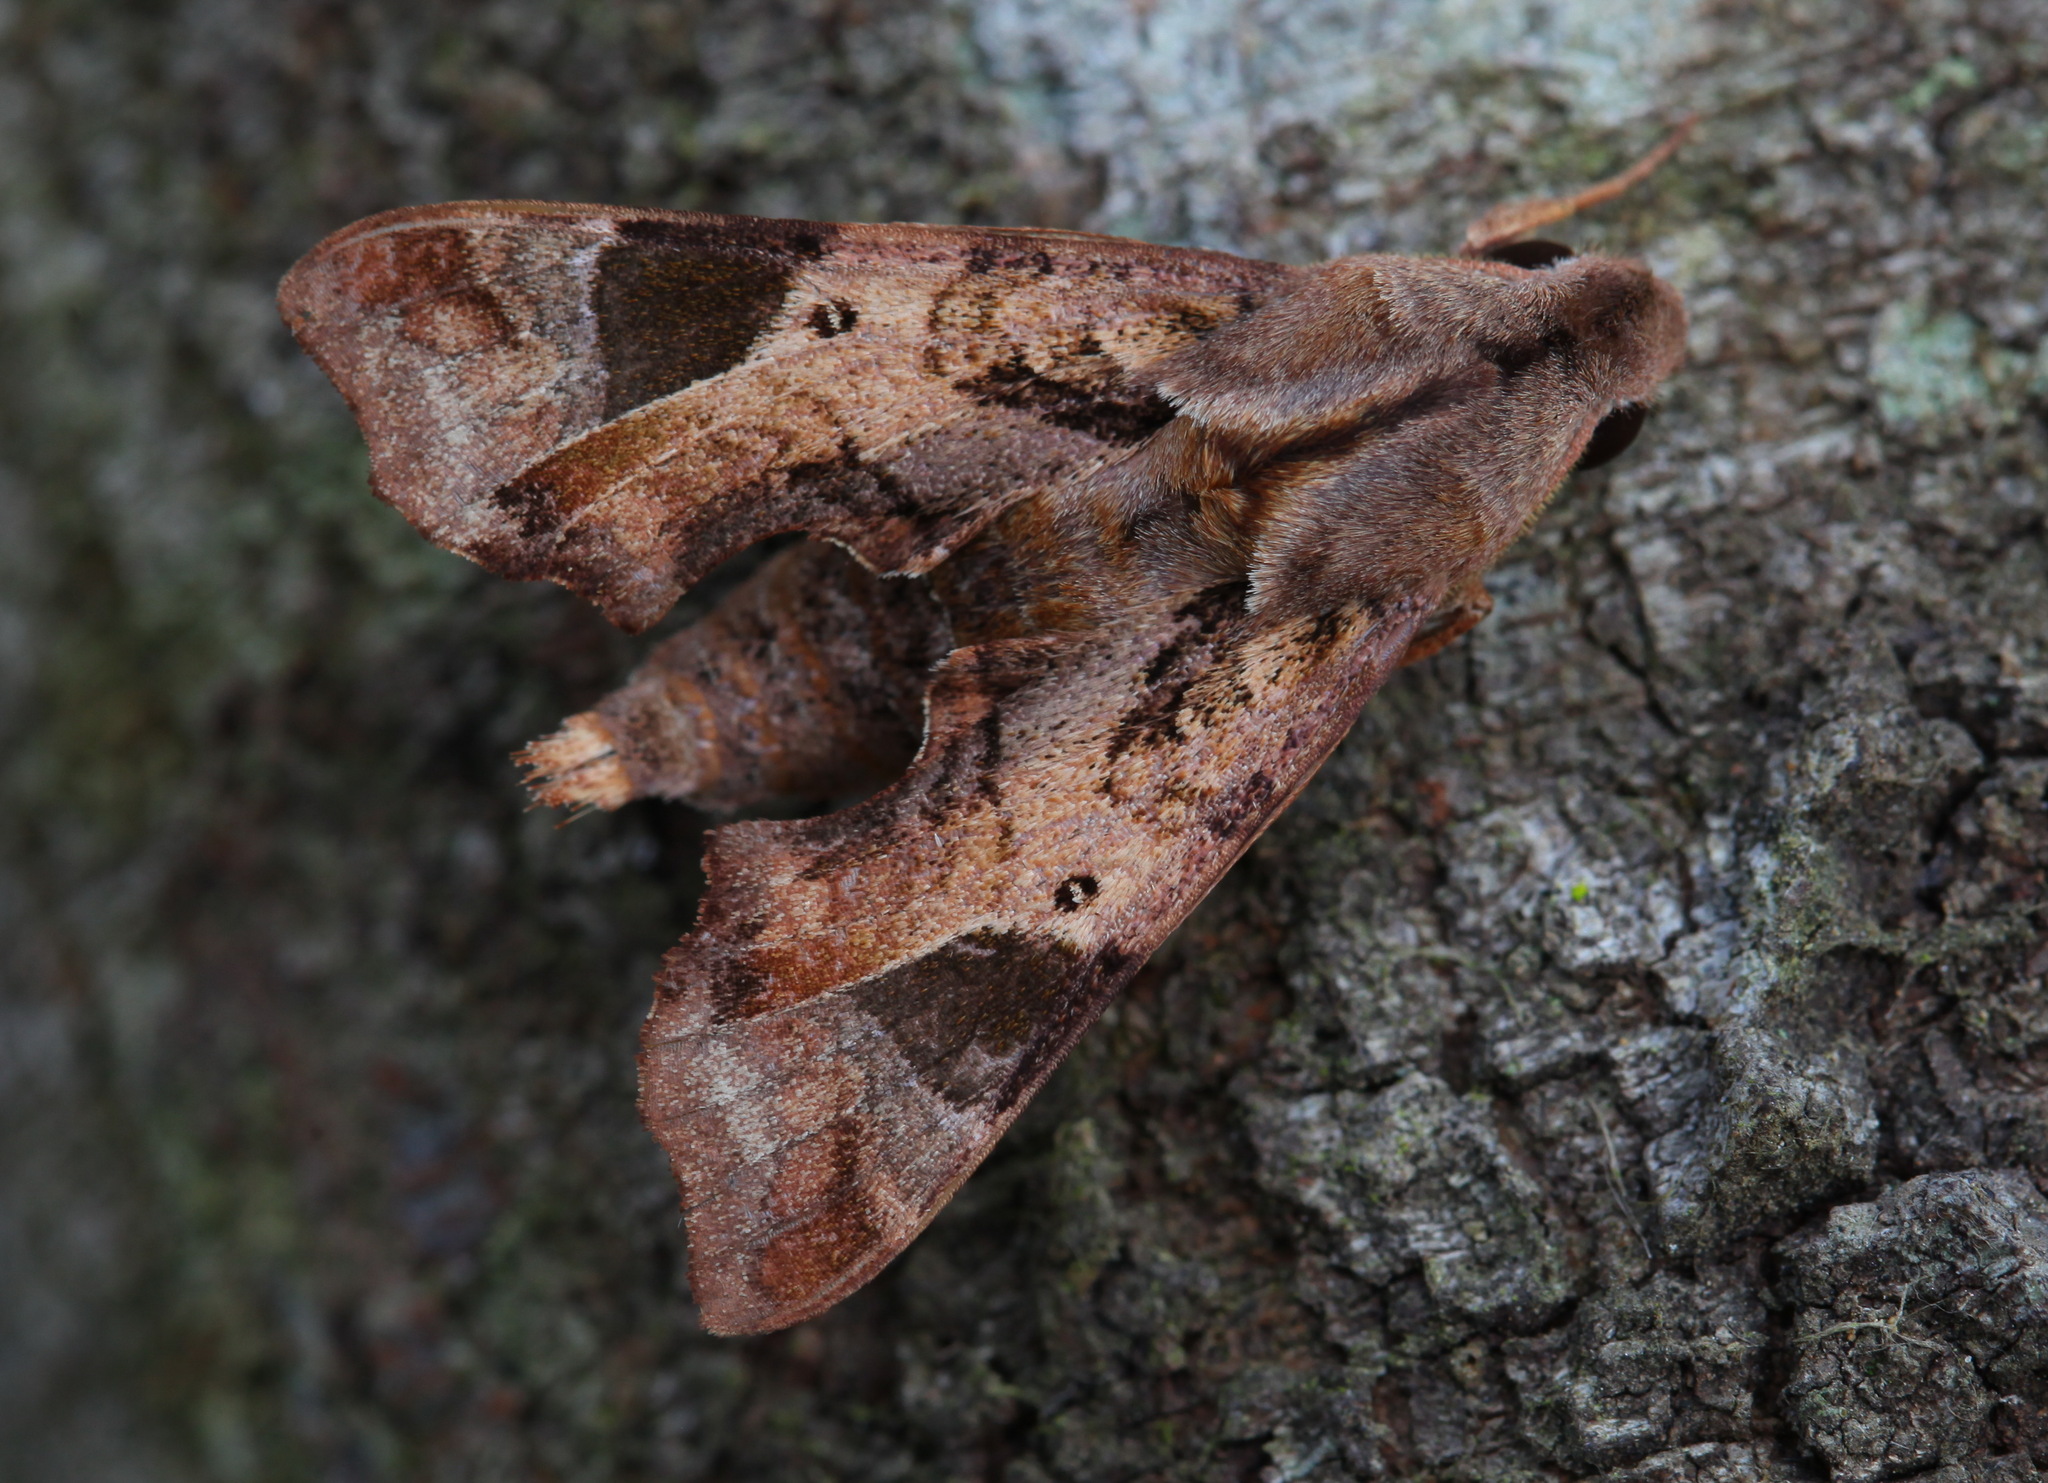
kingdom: Animalia
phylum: Arthropoda
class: Insecta
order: Lepidoptera
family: Sphingidae
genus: Temnora
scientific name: Temnora plagiata
